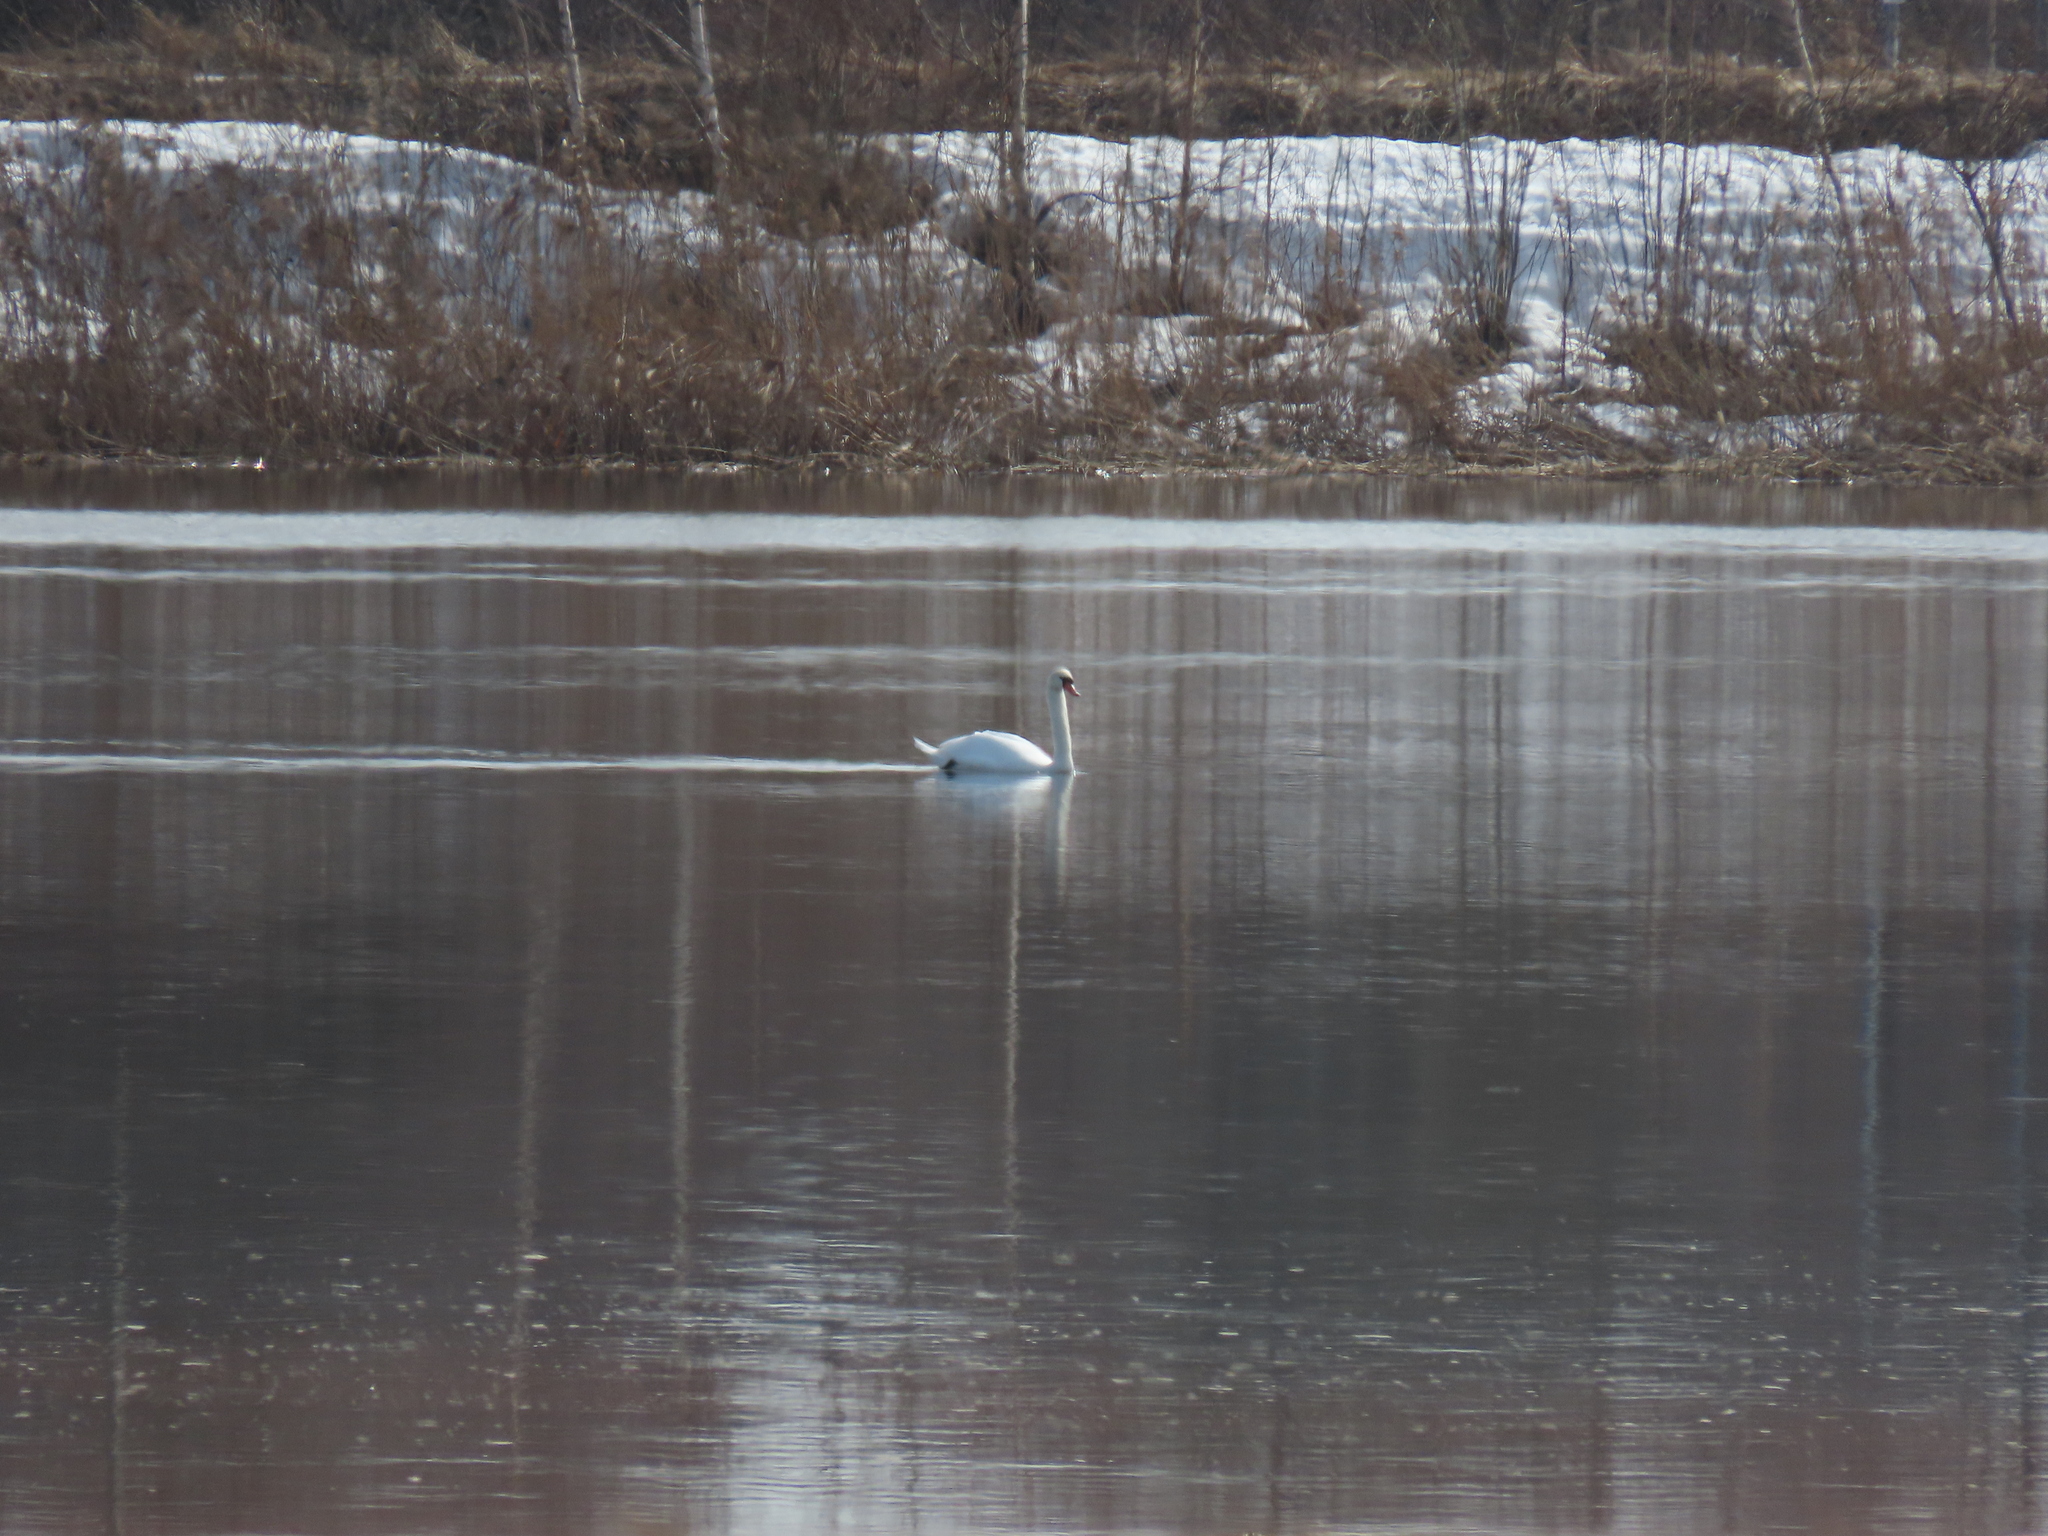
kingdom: Animalia
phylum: Chordata
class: Aves
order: Anseriformes
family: Anatidae
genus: Cygnus
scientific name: Cygnus olor
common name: Mute swan
